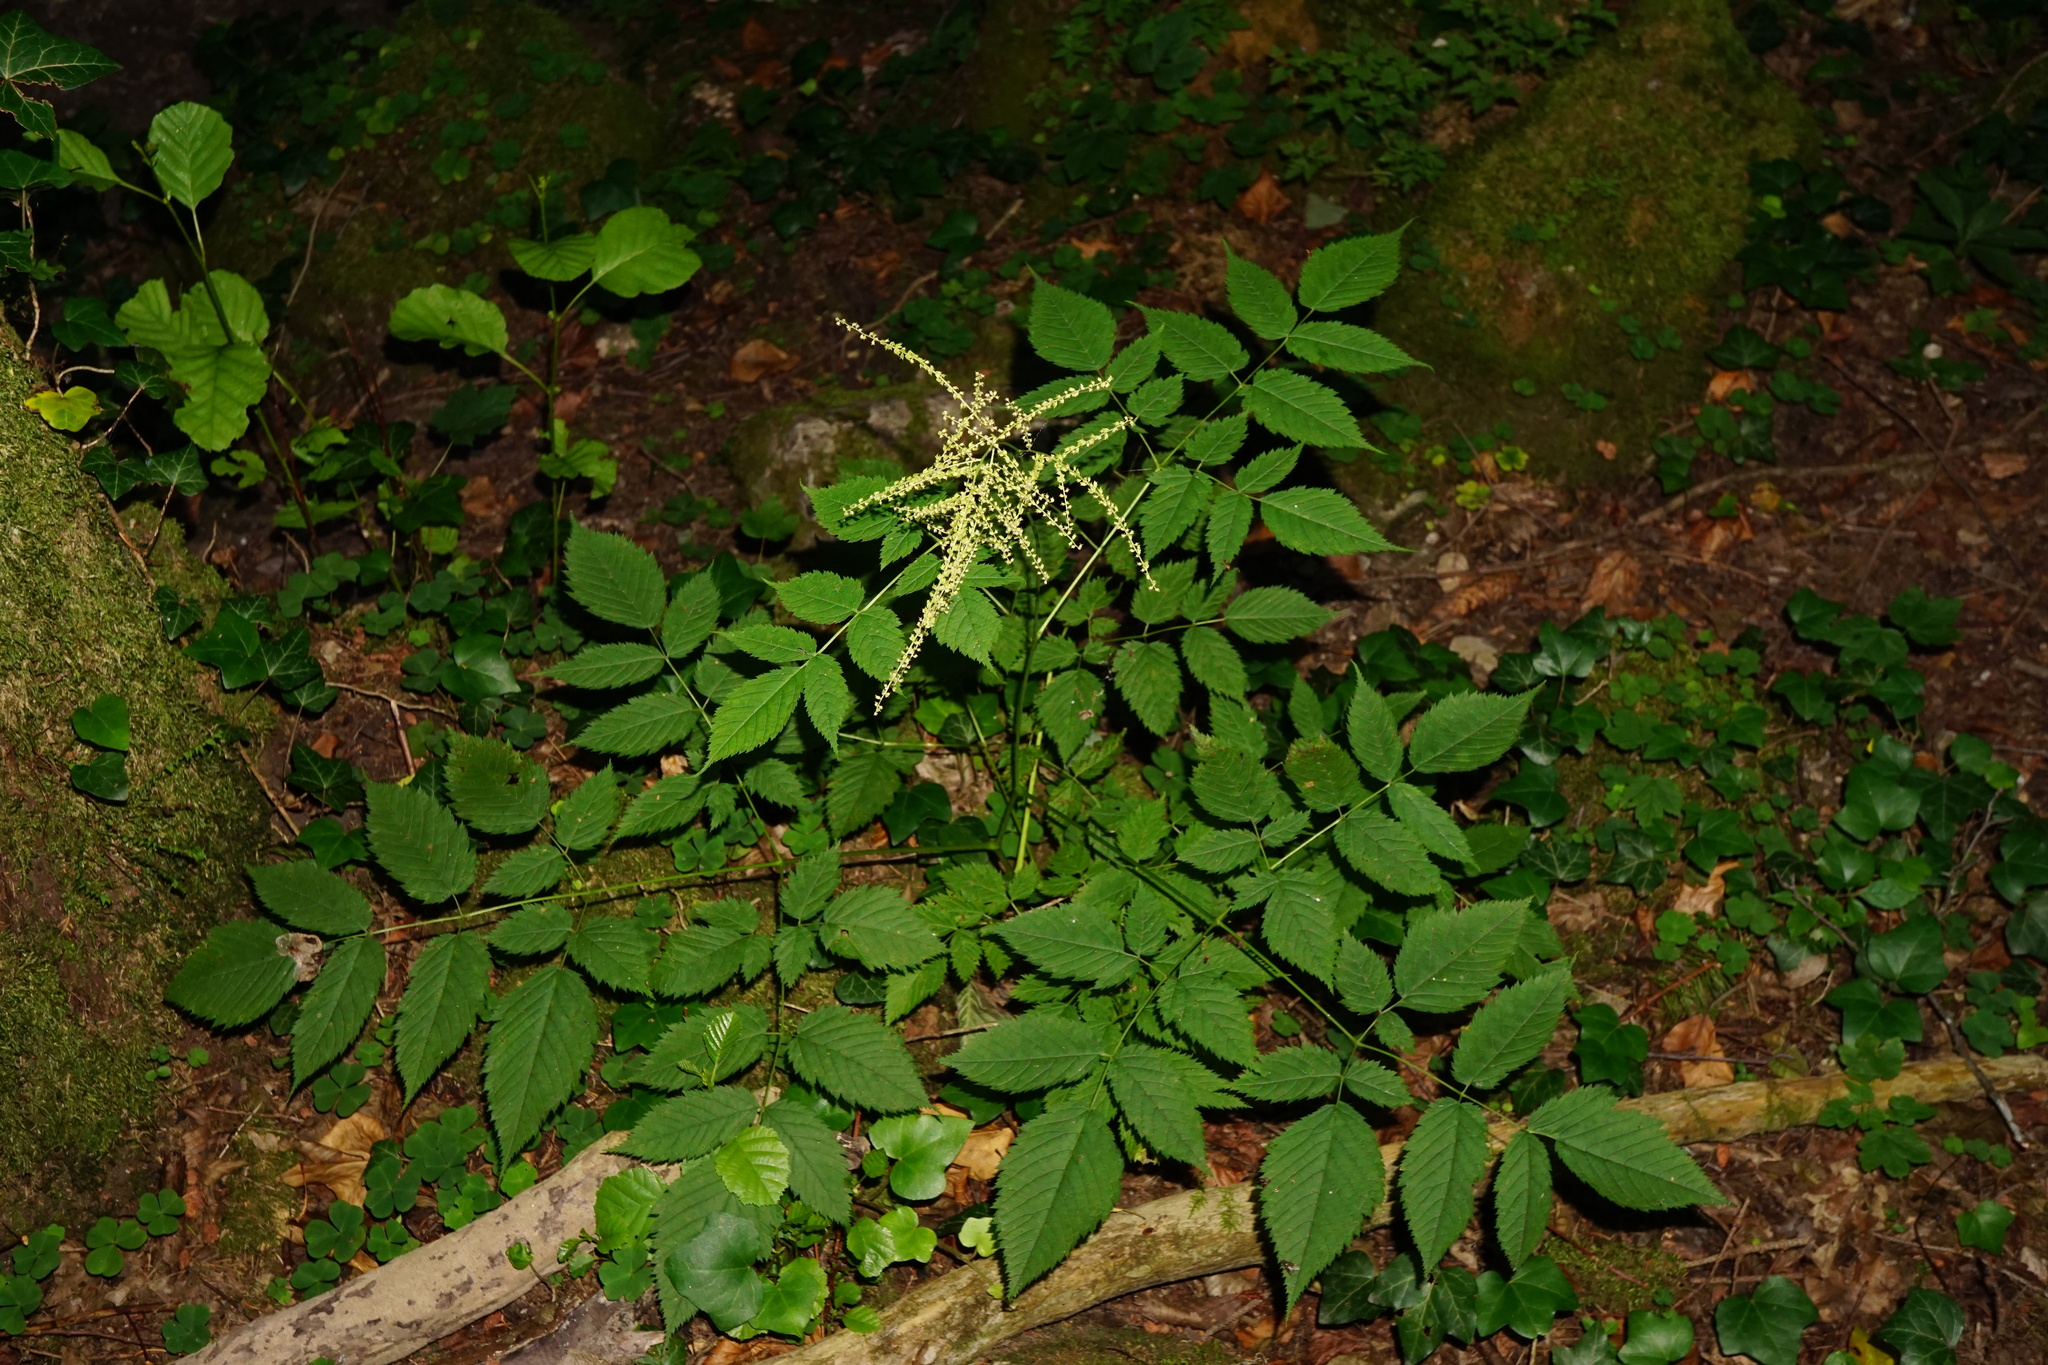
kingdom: Plantae
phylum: Tracheophyta
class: Magnoliopsida
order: Rosales
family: Rosaceae
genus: Aruncus
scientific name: Aruncus dioicus
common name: Buck's-beard
